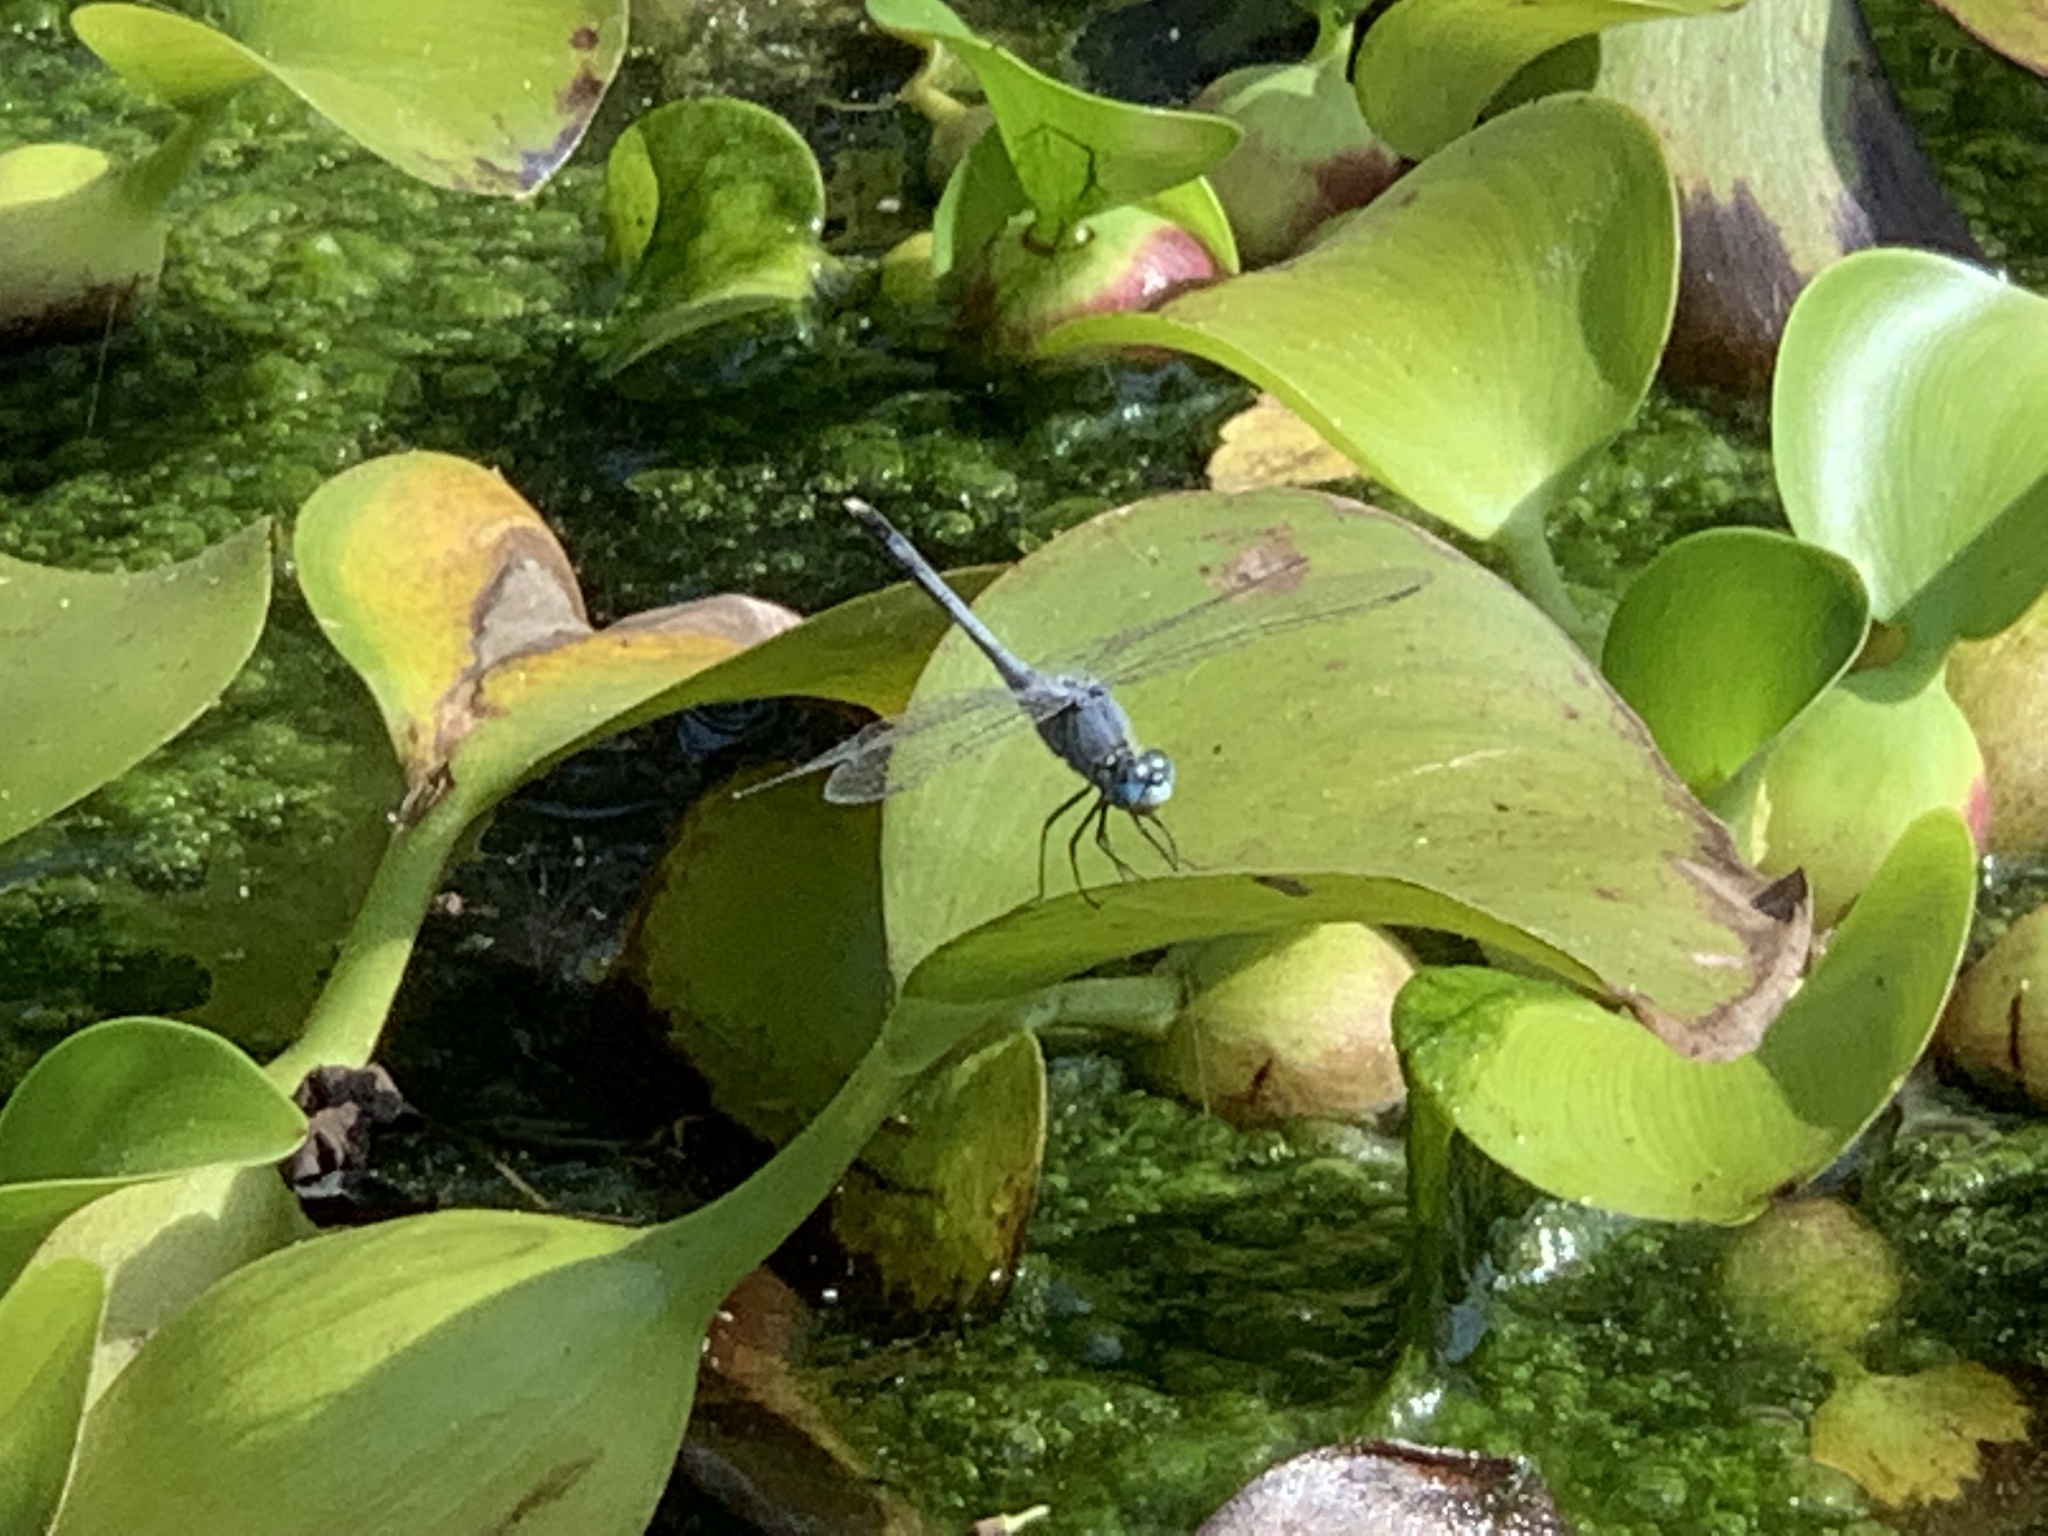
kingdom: Animalia
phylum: Arthropoda
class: Insecta
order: Odonata
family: Libellulidae
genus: Diplacodes
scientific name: Diplacodes trivialis
